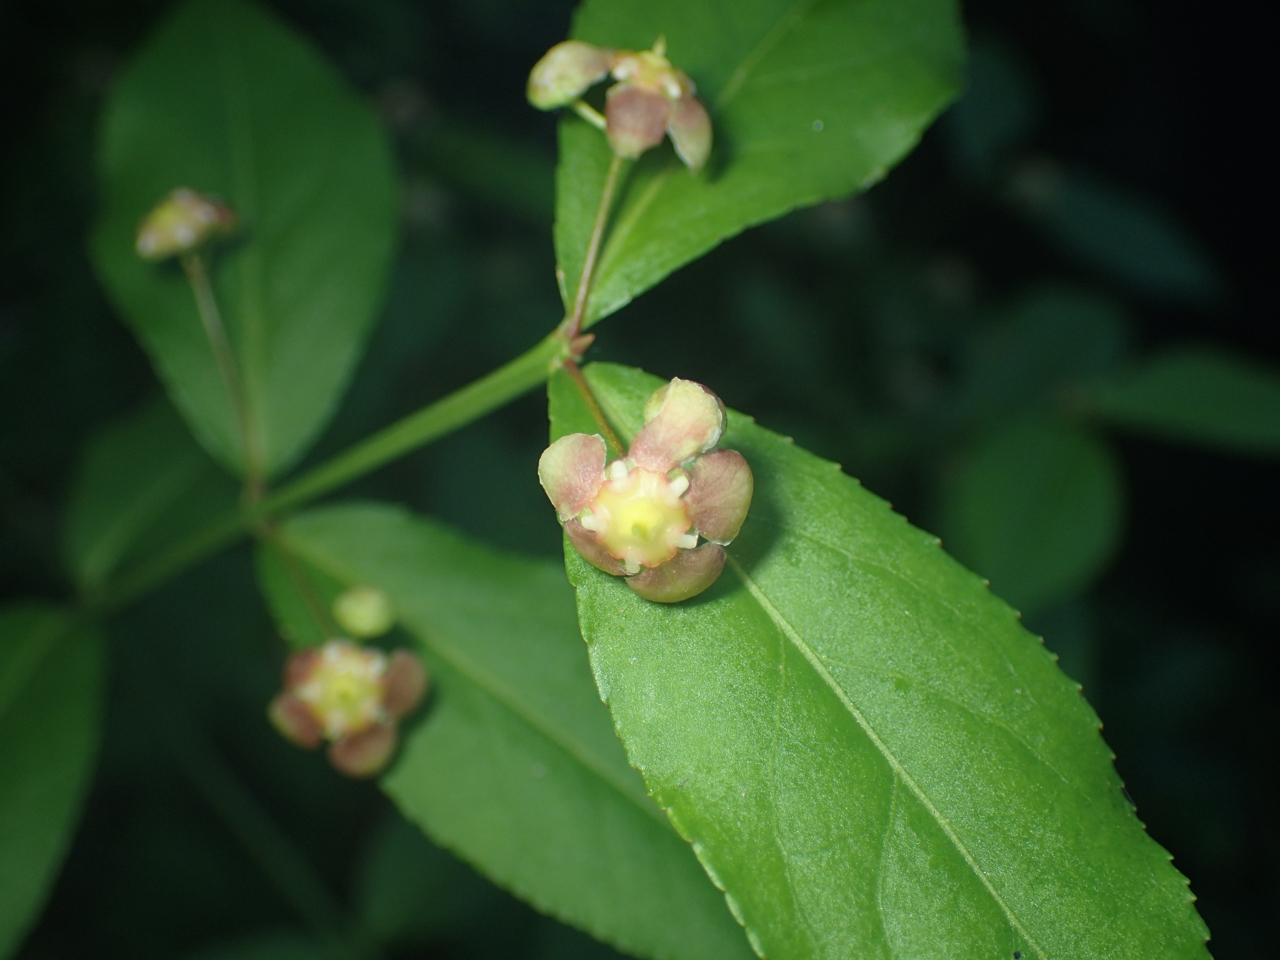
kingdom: Plantae
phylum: Tracheophyta
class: Magnoliopsida
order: Celastrales
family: Celastraceae
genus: Euonymus
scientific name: Euonymus americanus
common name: Bursting-heart
